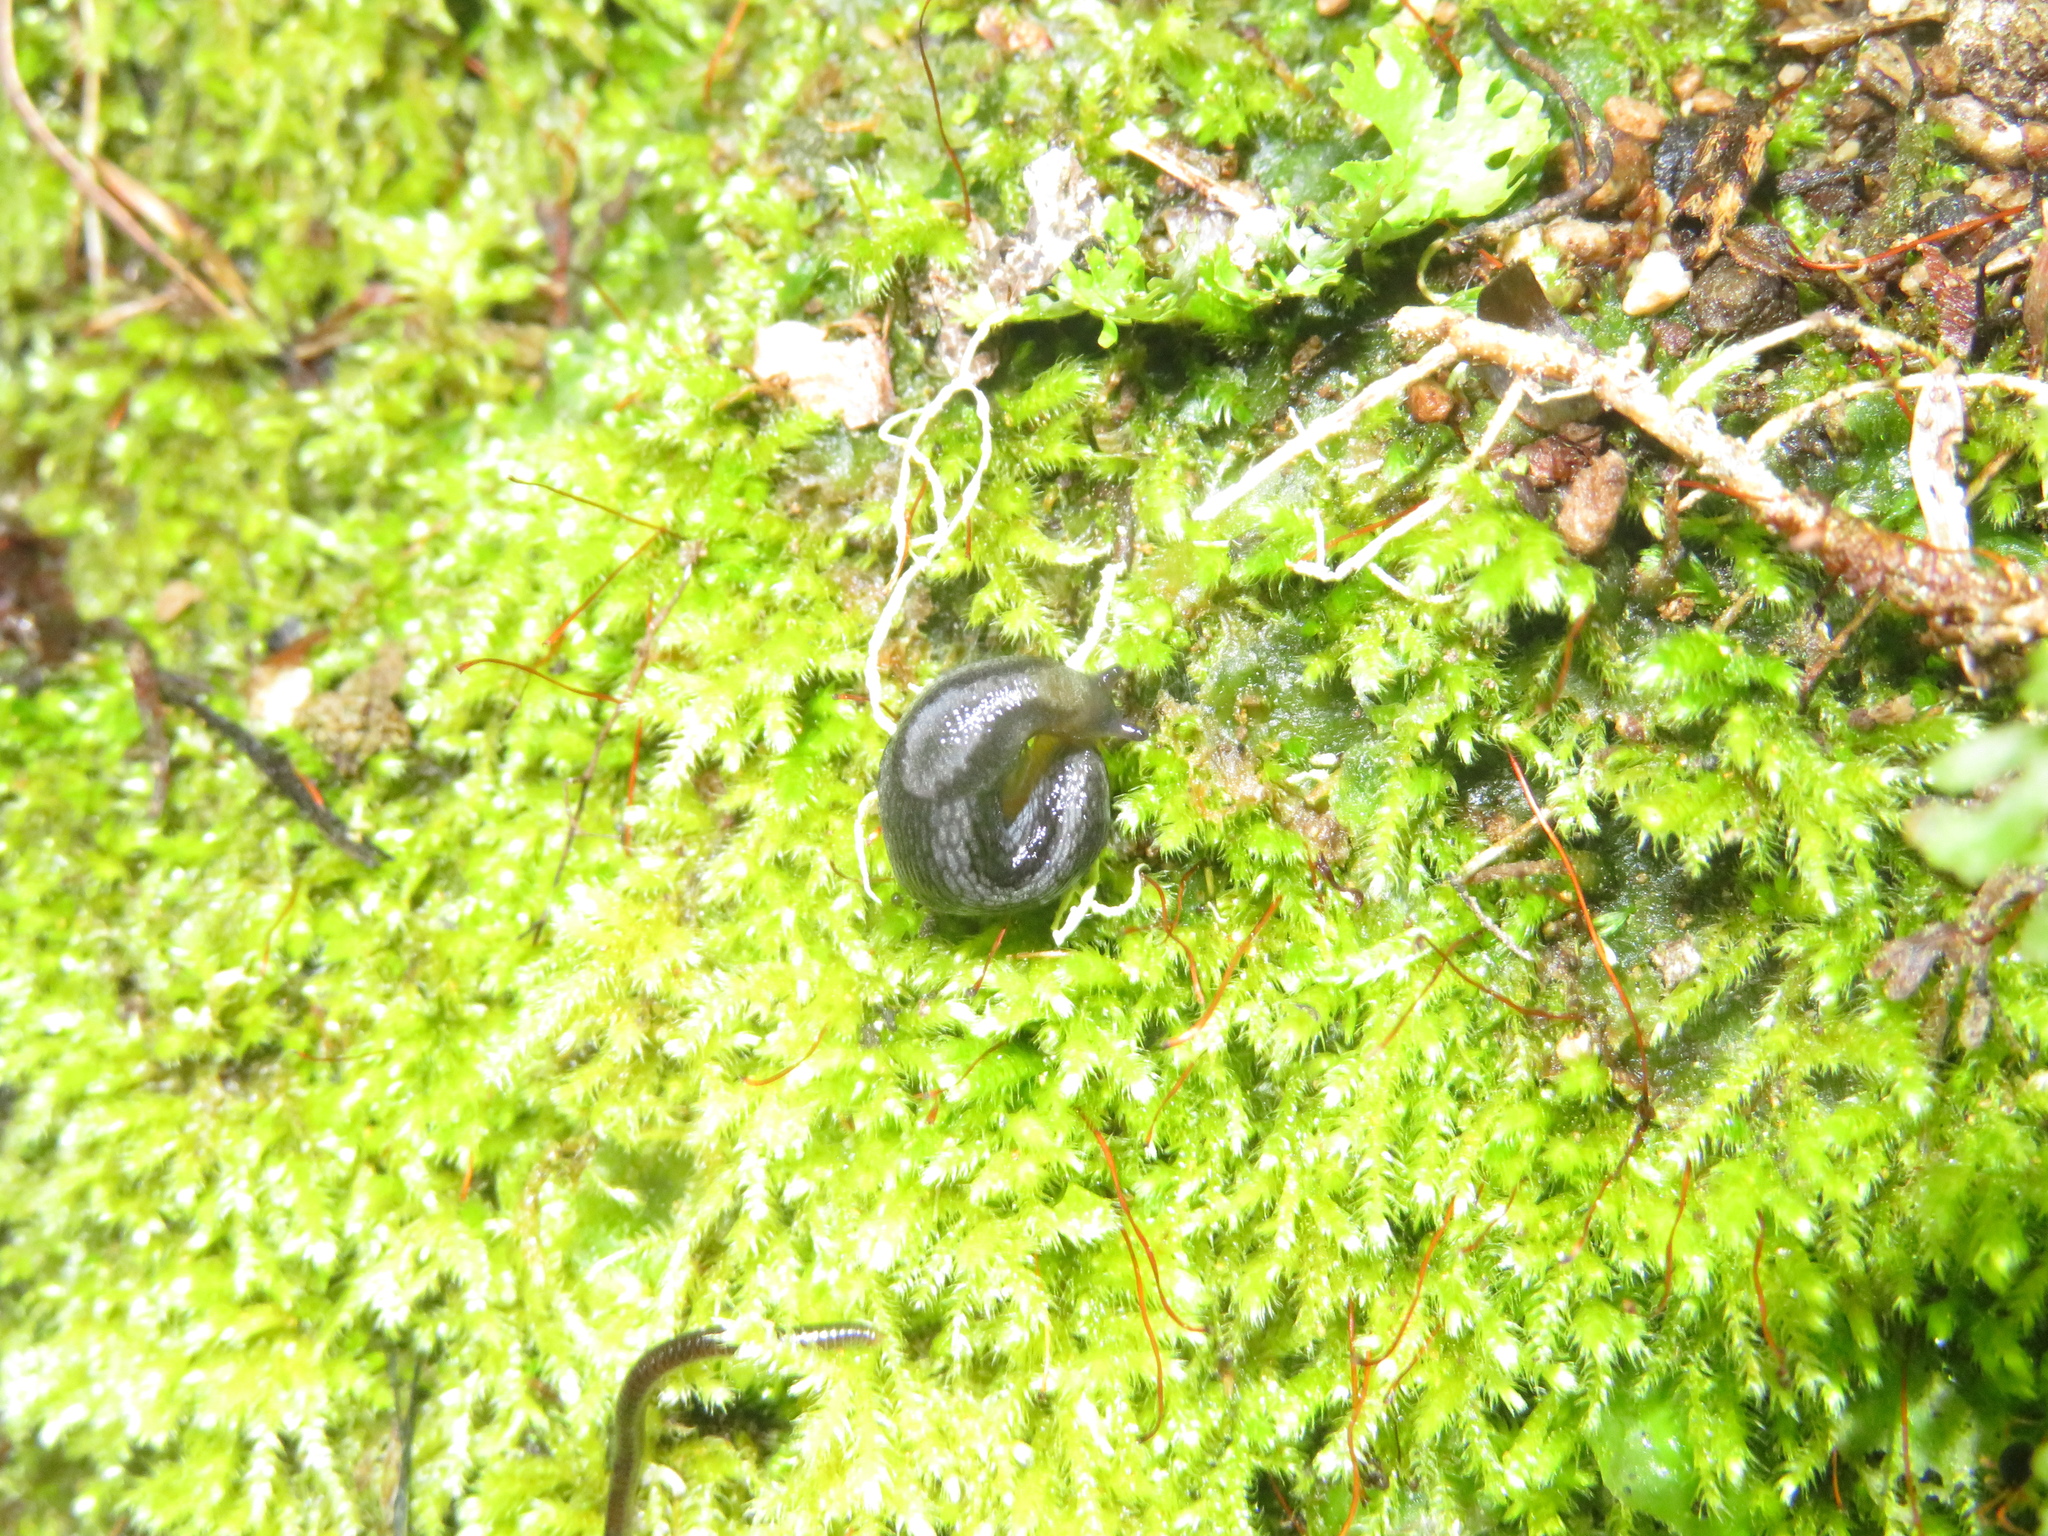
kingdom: Animalia
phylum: Mollusca
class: Gastropoda
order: Stylommatophora
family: Arionidae
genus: Kobeltia
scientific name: Kobeltia
